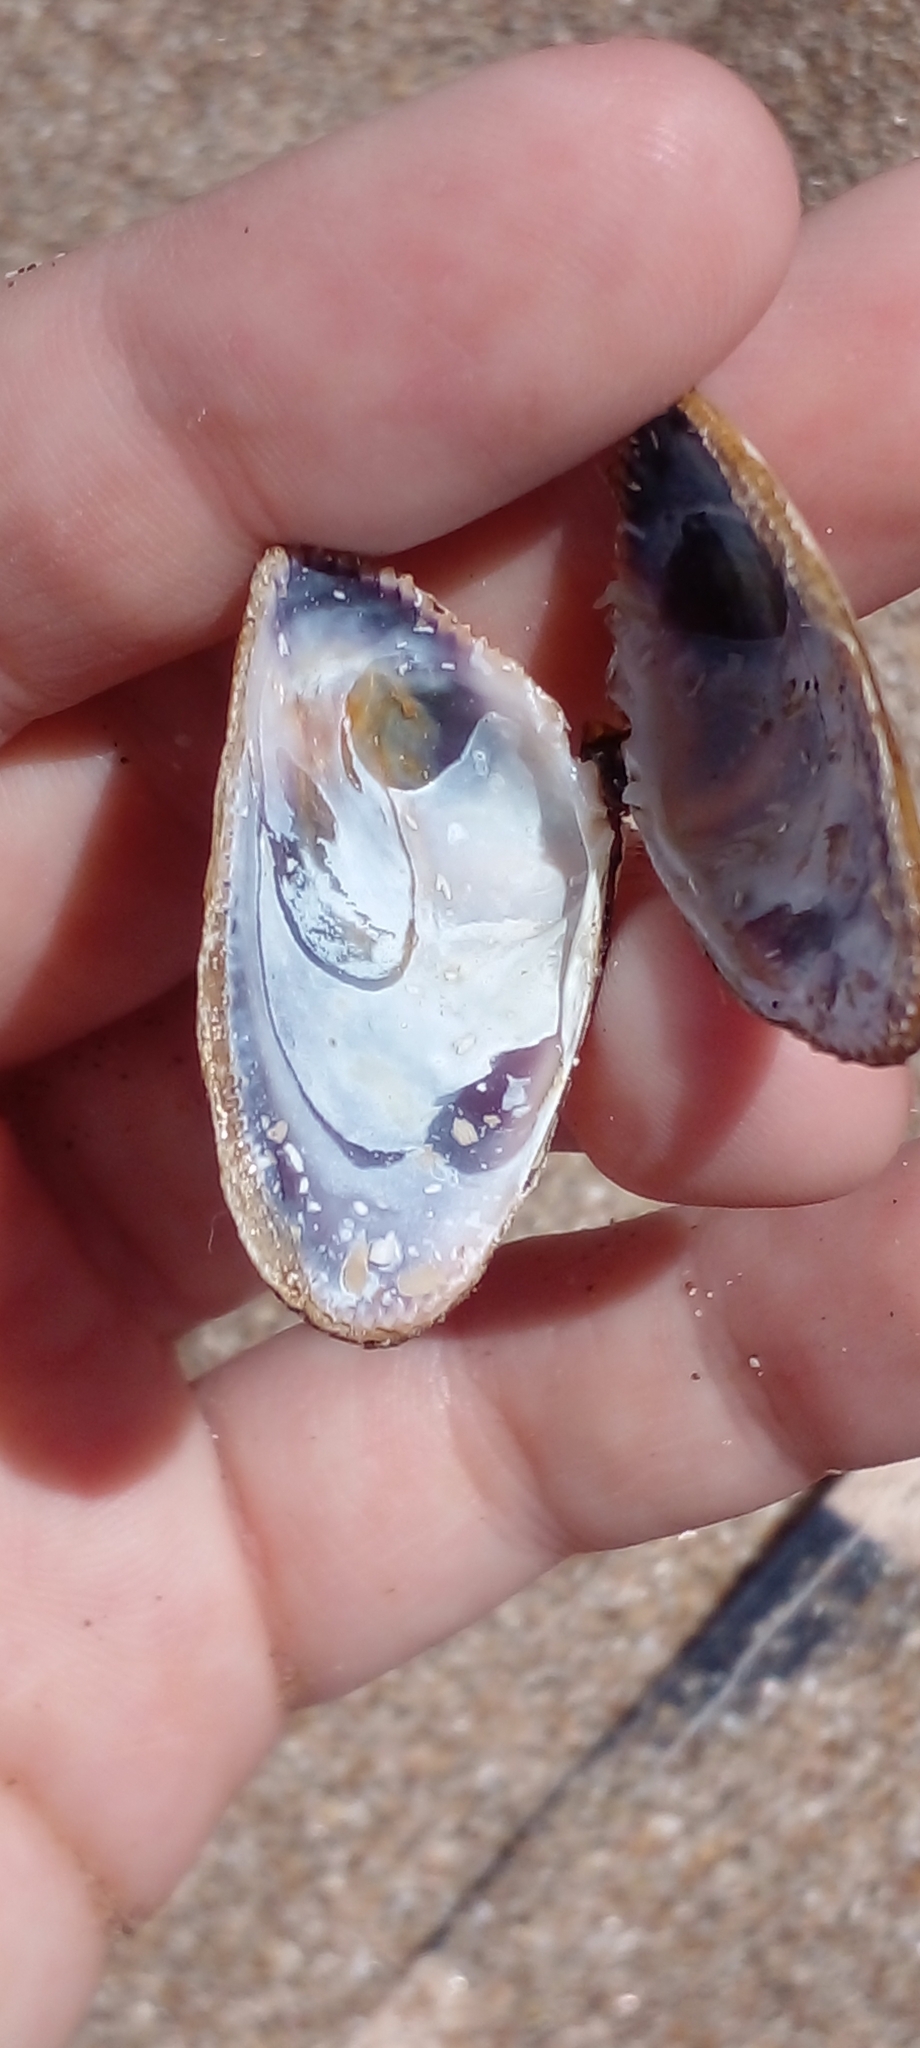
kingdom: Animalia
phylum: Mollusca
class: Bivalvia
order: Cardiida
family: Donacidae
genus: Donax
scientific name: Donax hanleyanus
